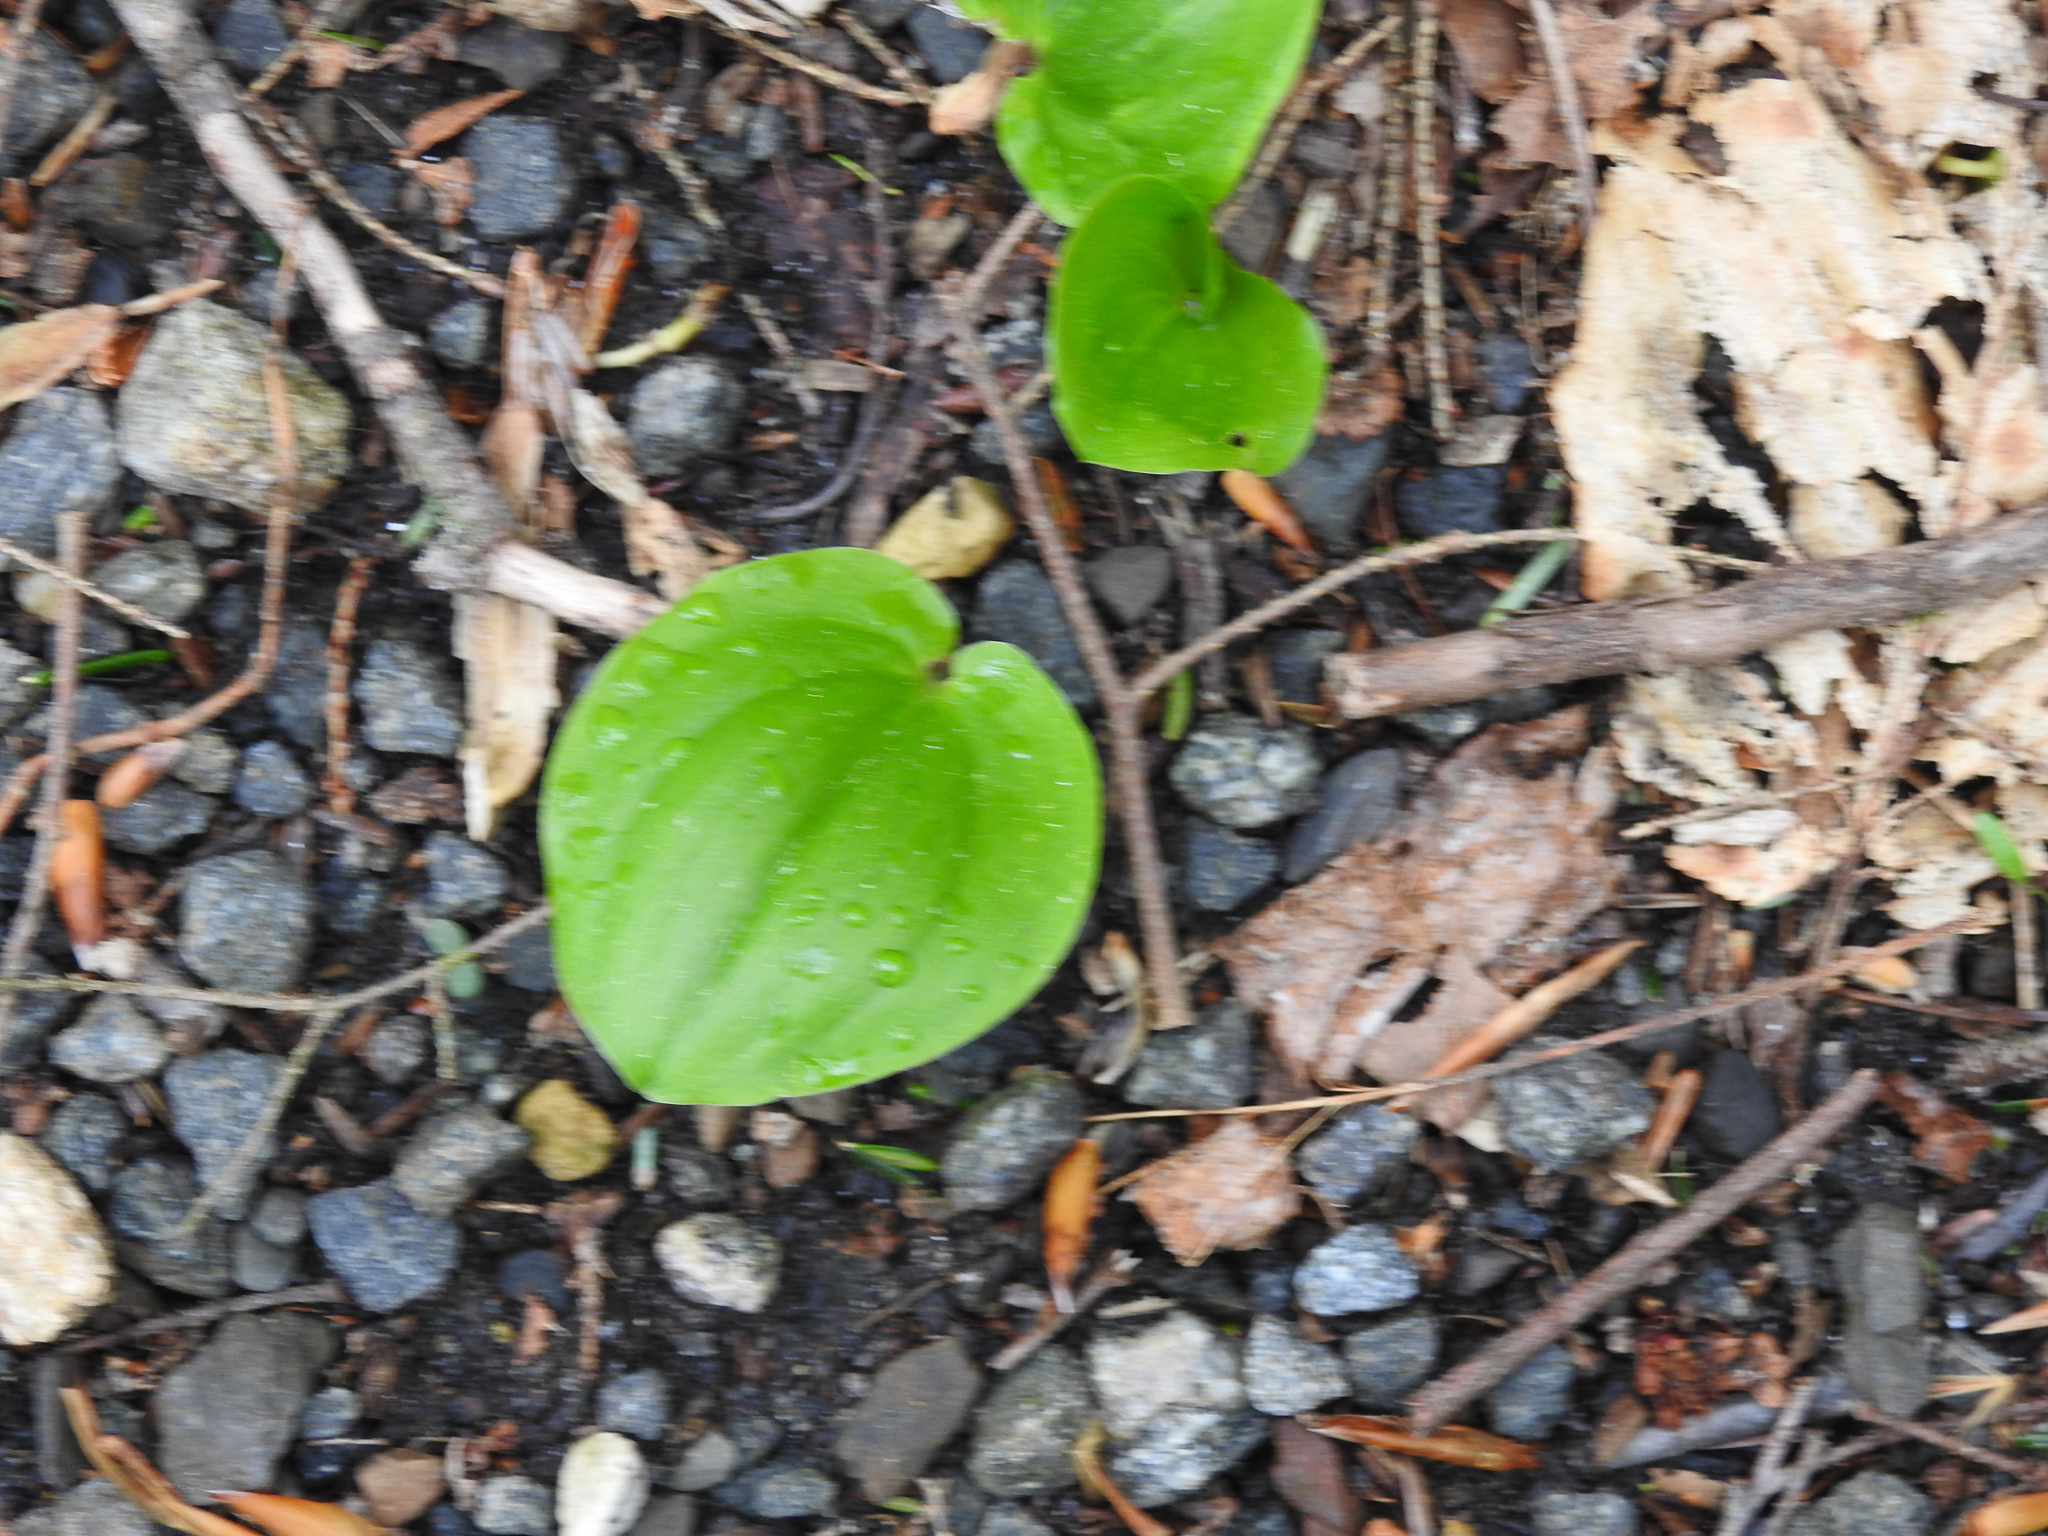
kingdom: Plantae
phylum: Tracheophyta
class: Liliopsida
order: Asparagales
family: Asparagaceae
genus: Maianthemum
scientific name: Maianthemum canadense
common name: False lily-of-the-valley
